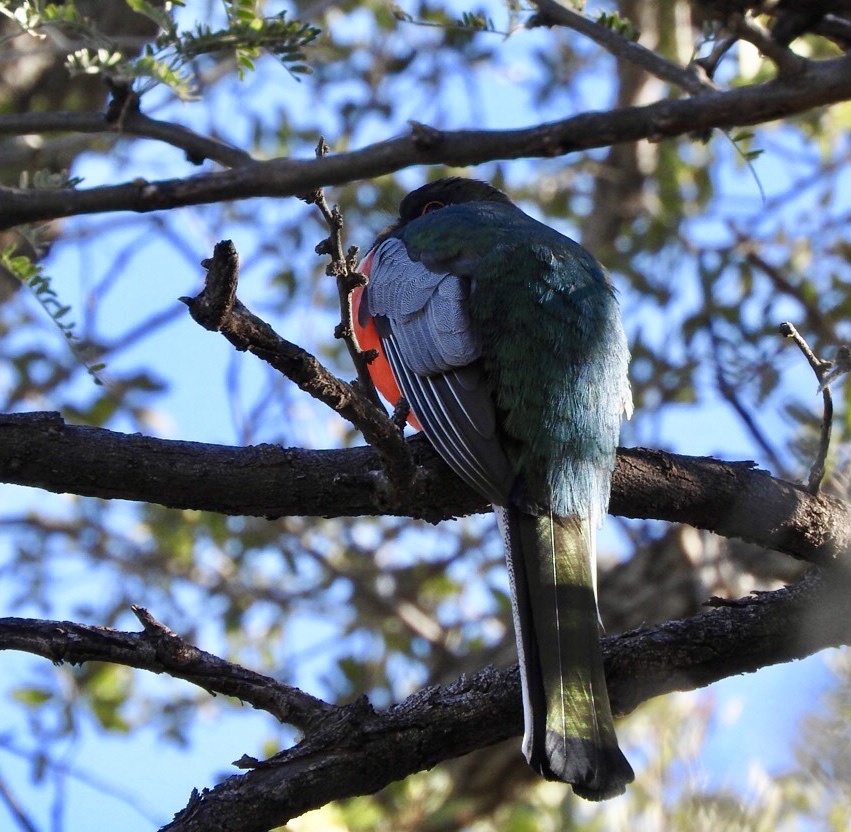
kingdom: Animalia
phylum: Chordata
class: Aves
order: Trogoniformes
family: Trogonidae
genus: Trogon
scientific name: Trogon elegans
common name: Elegant trogon
